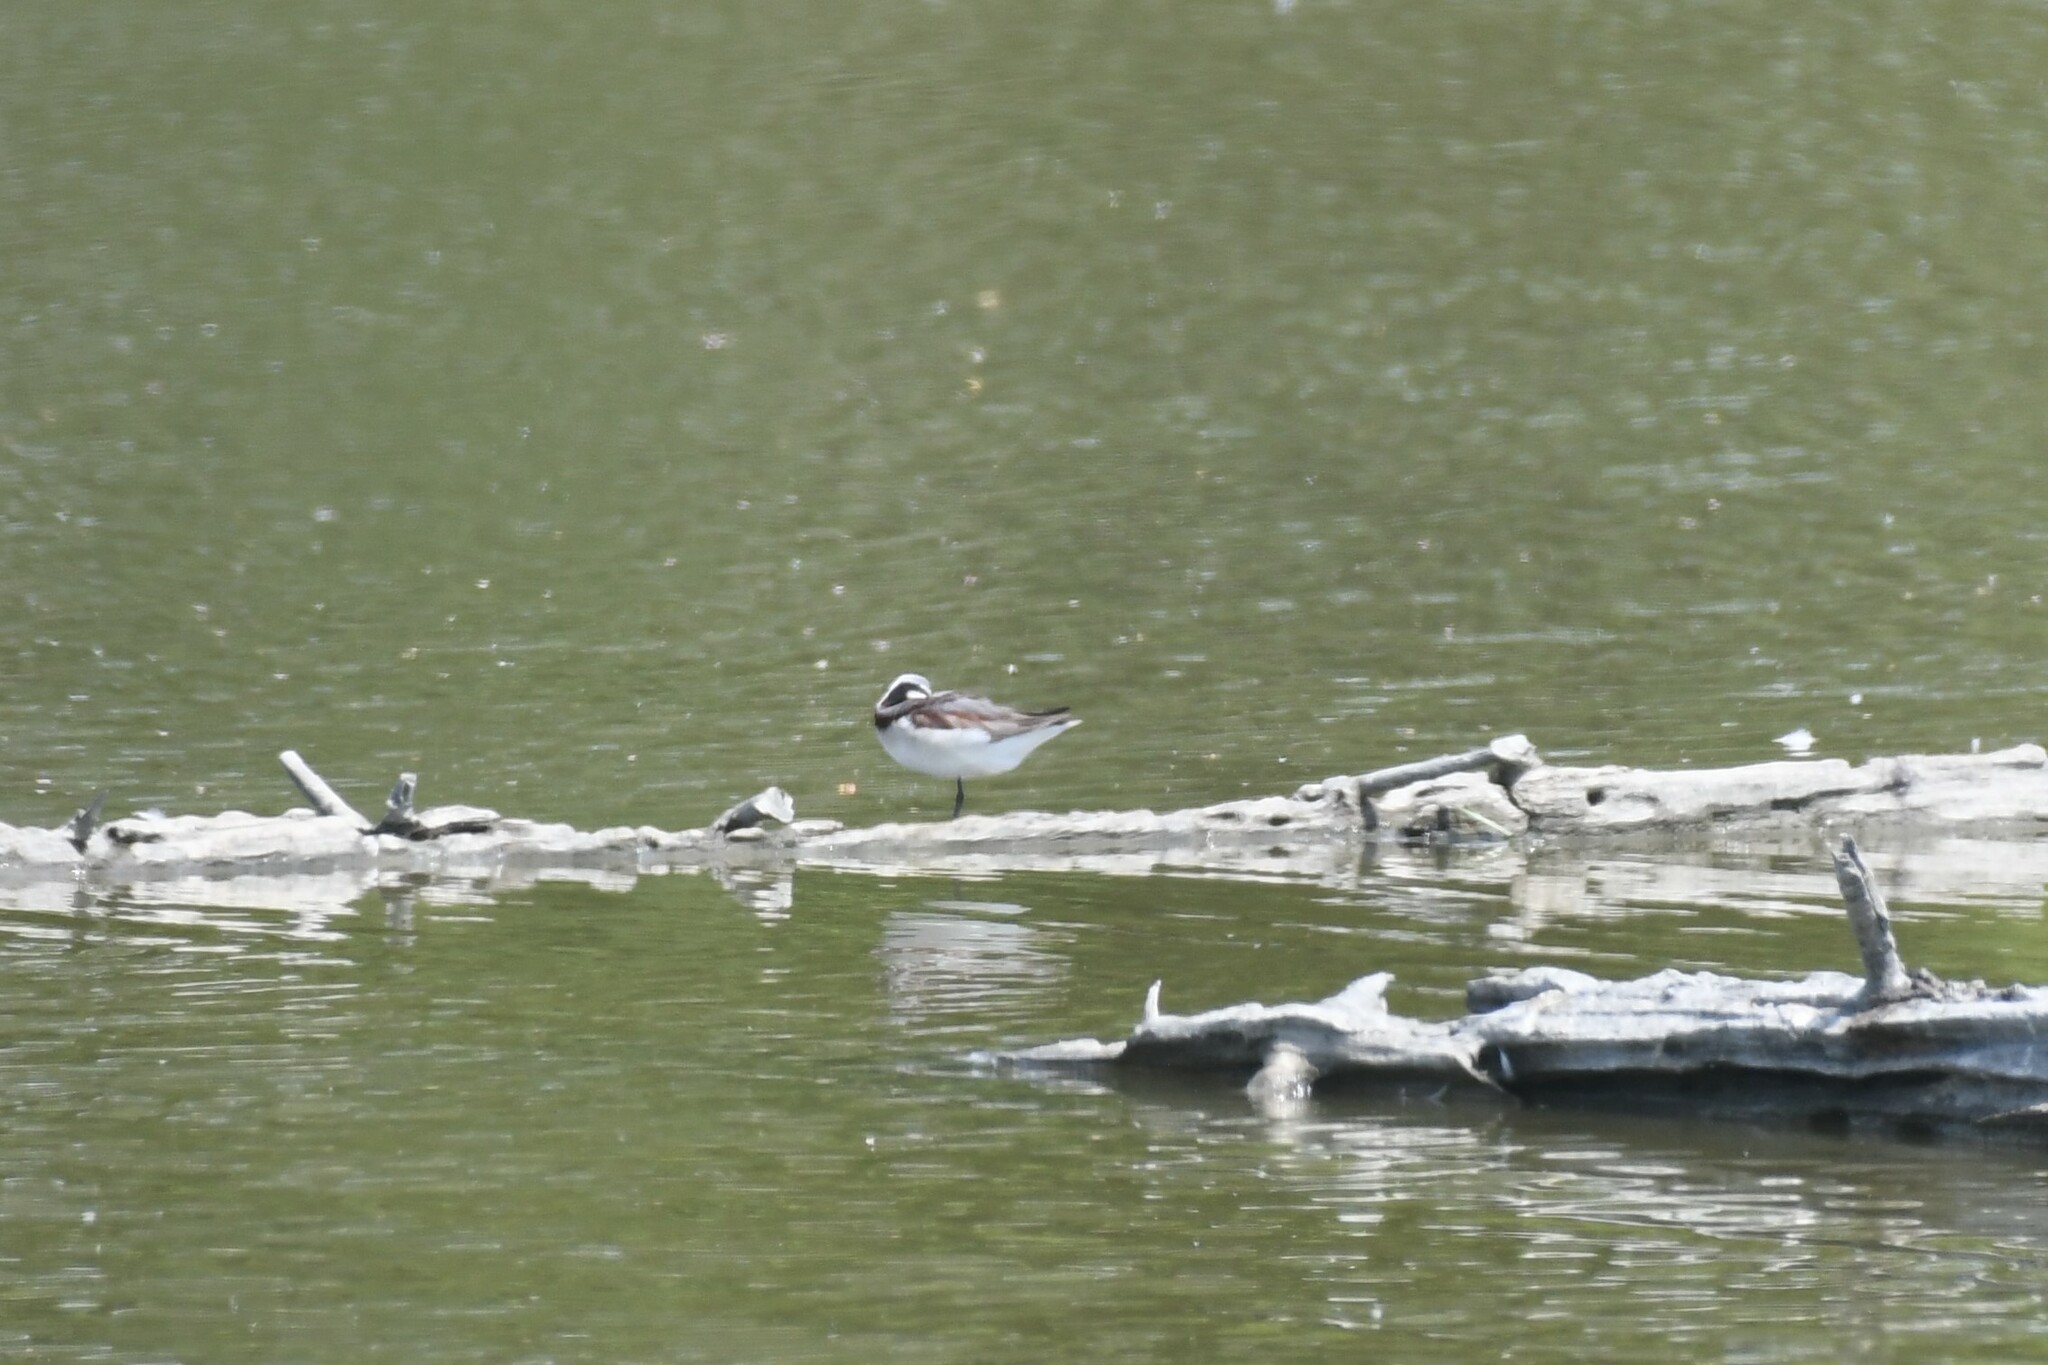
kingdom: Animalia
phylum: Chordata
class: Aves
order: Charadriiformes
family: Scolopacidae
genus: Phalaropus
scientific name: Phalaropus tricolor
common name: Wilson's phalarope
